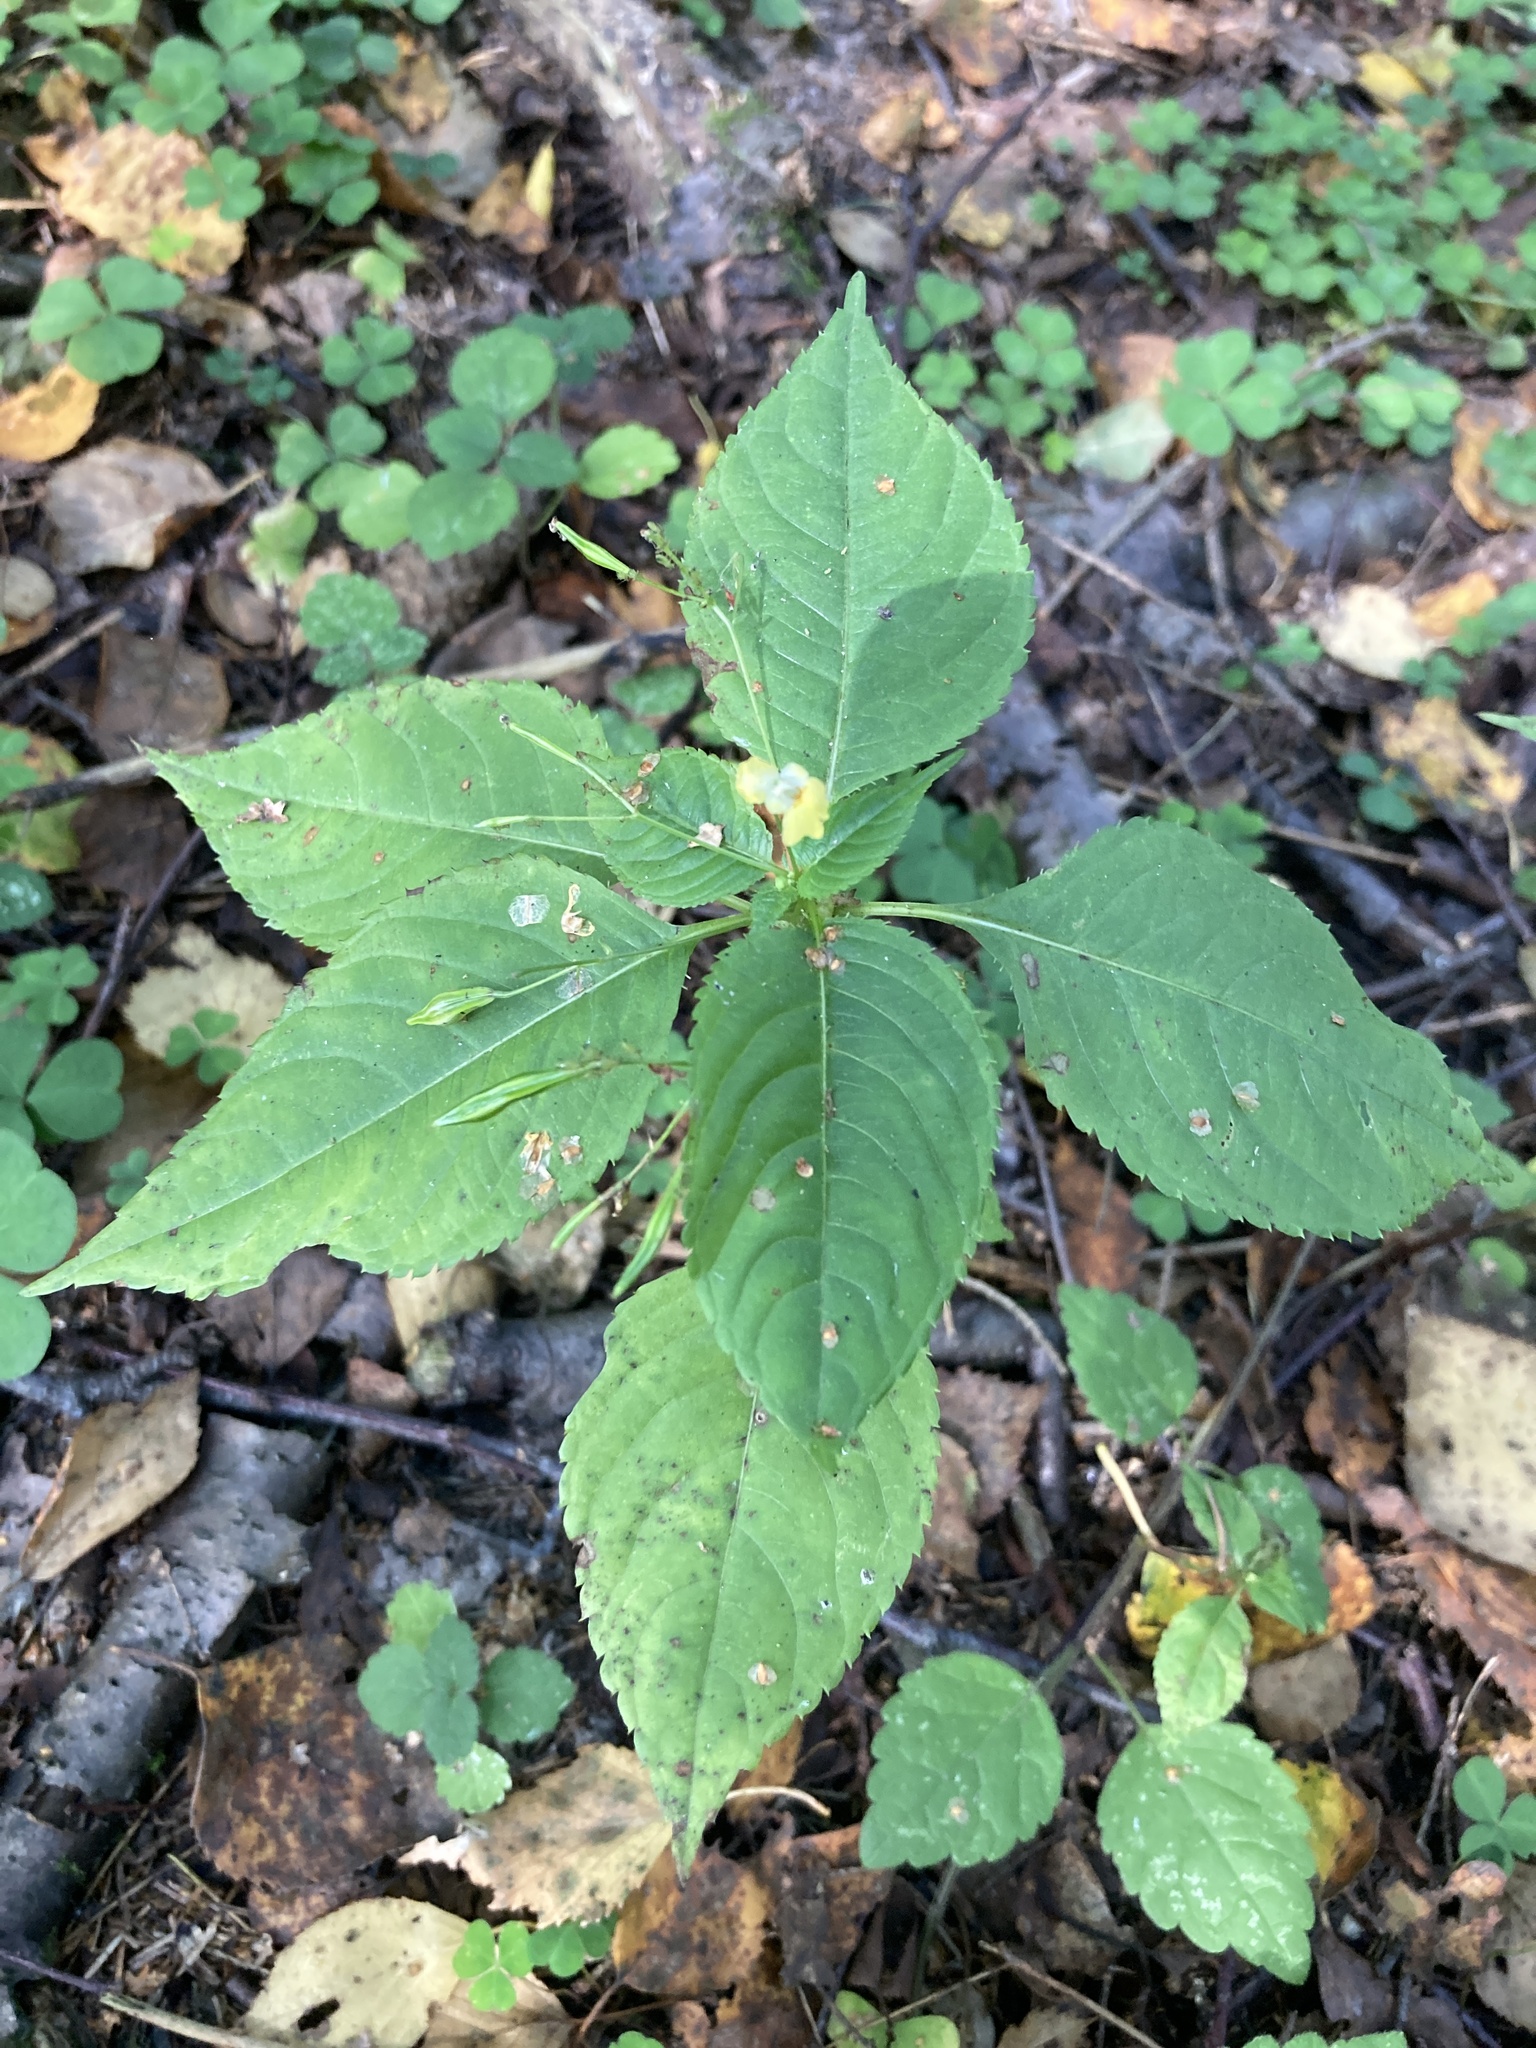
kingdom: Plantae
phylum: Tracheophyta
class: Magnoliopsida
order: Ericales
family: Balsaminaceae
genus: Impatiens
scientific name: Impatiens parviflora
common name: Small balsam
